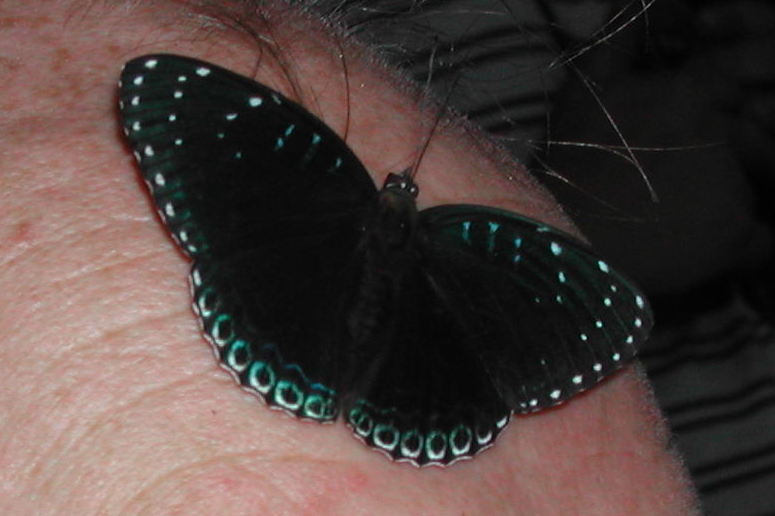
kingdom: Animalia
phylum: Arthropoda
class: Insecta
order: Lepidoptera
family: Nymphalidae
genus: Stibochiona
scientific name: Stibochiona nicea
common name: Popinjay
